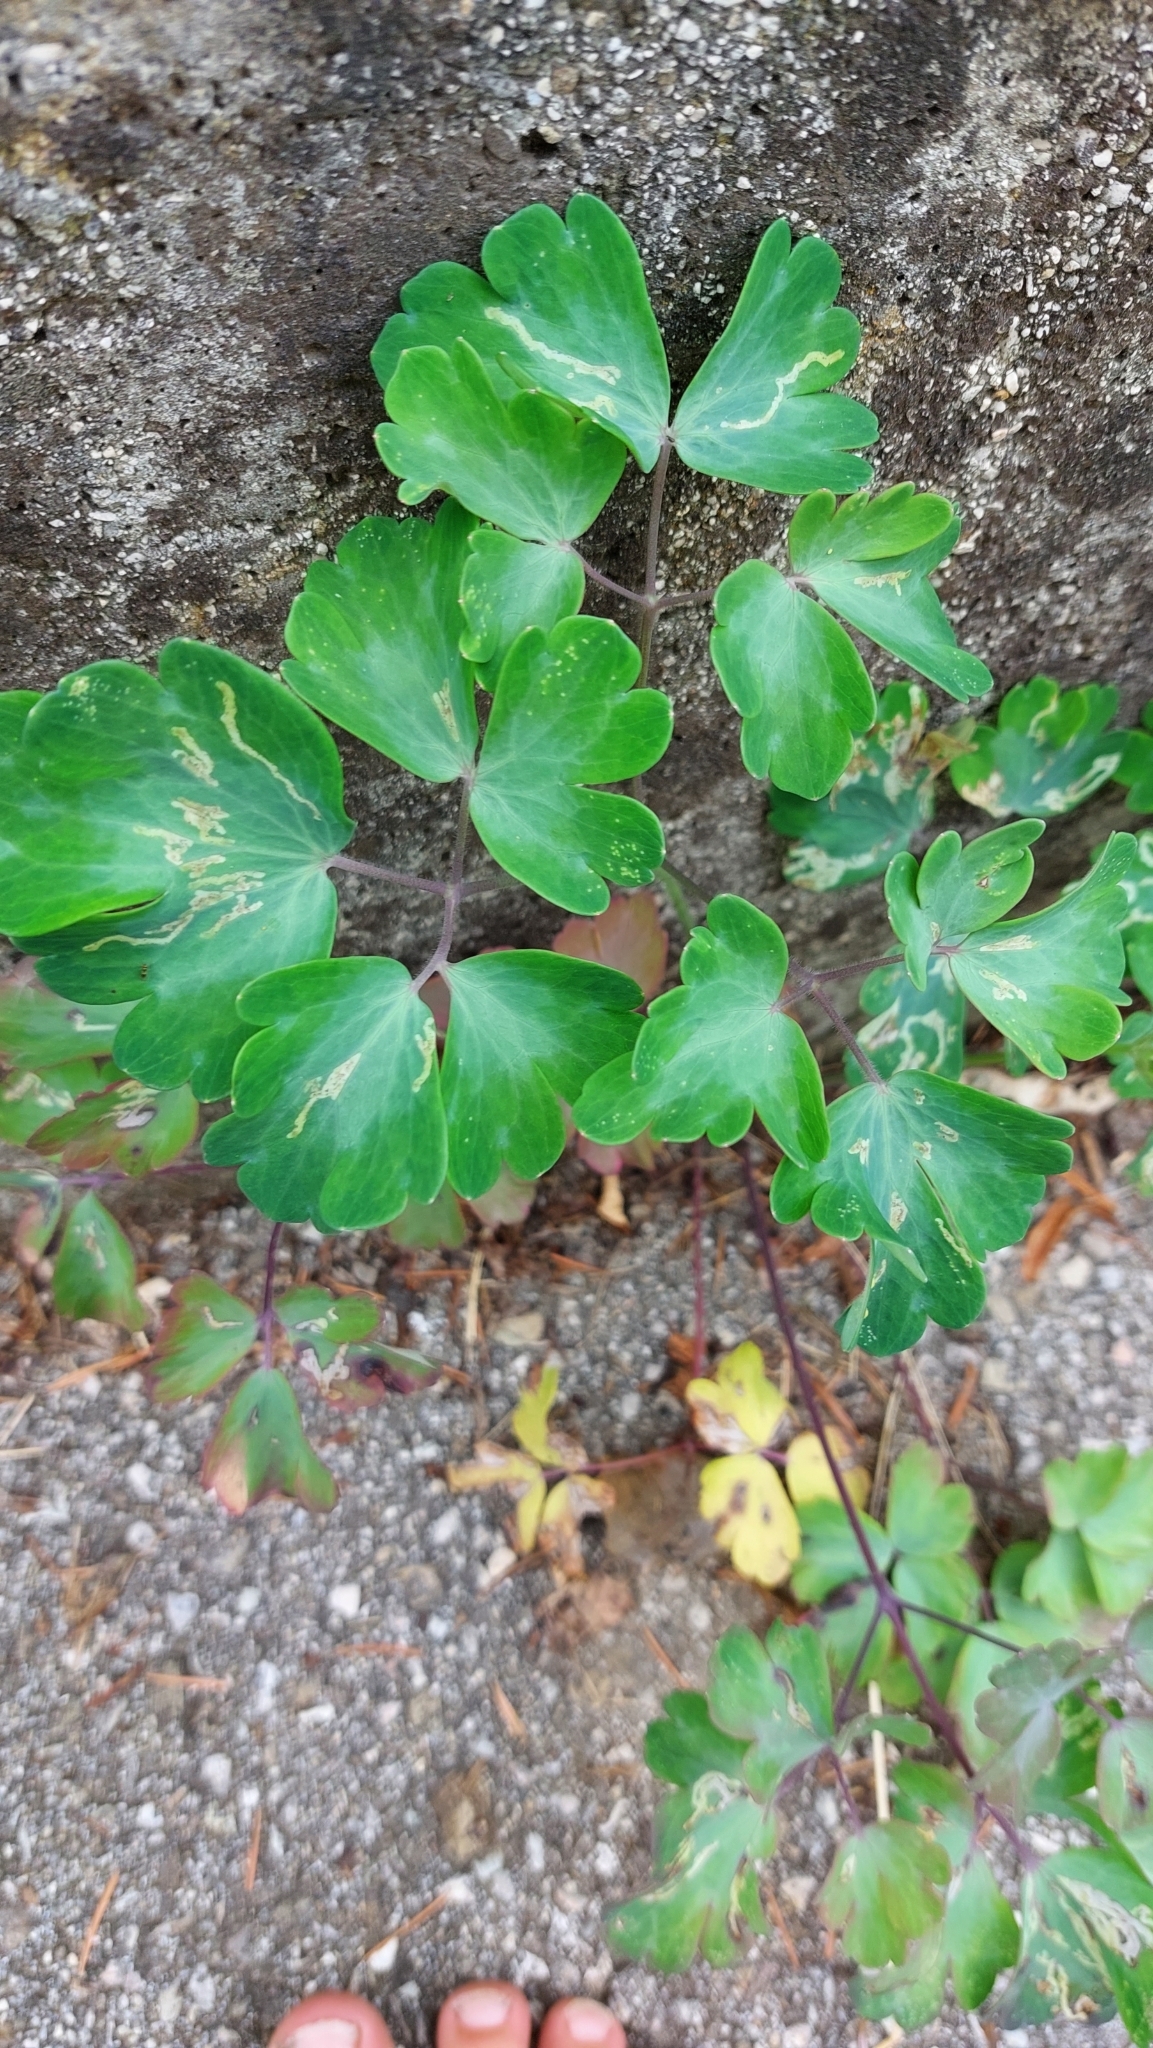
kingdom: Plantae
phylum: Tracheophyta
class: Magnoliopsida
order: Ranunculales
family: Ranunculaceae
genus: Aquilegia
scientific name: Aquilegia vulgaris
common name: Columbine
